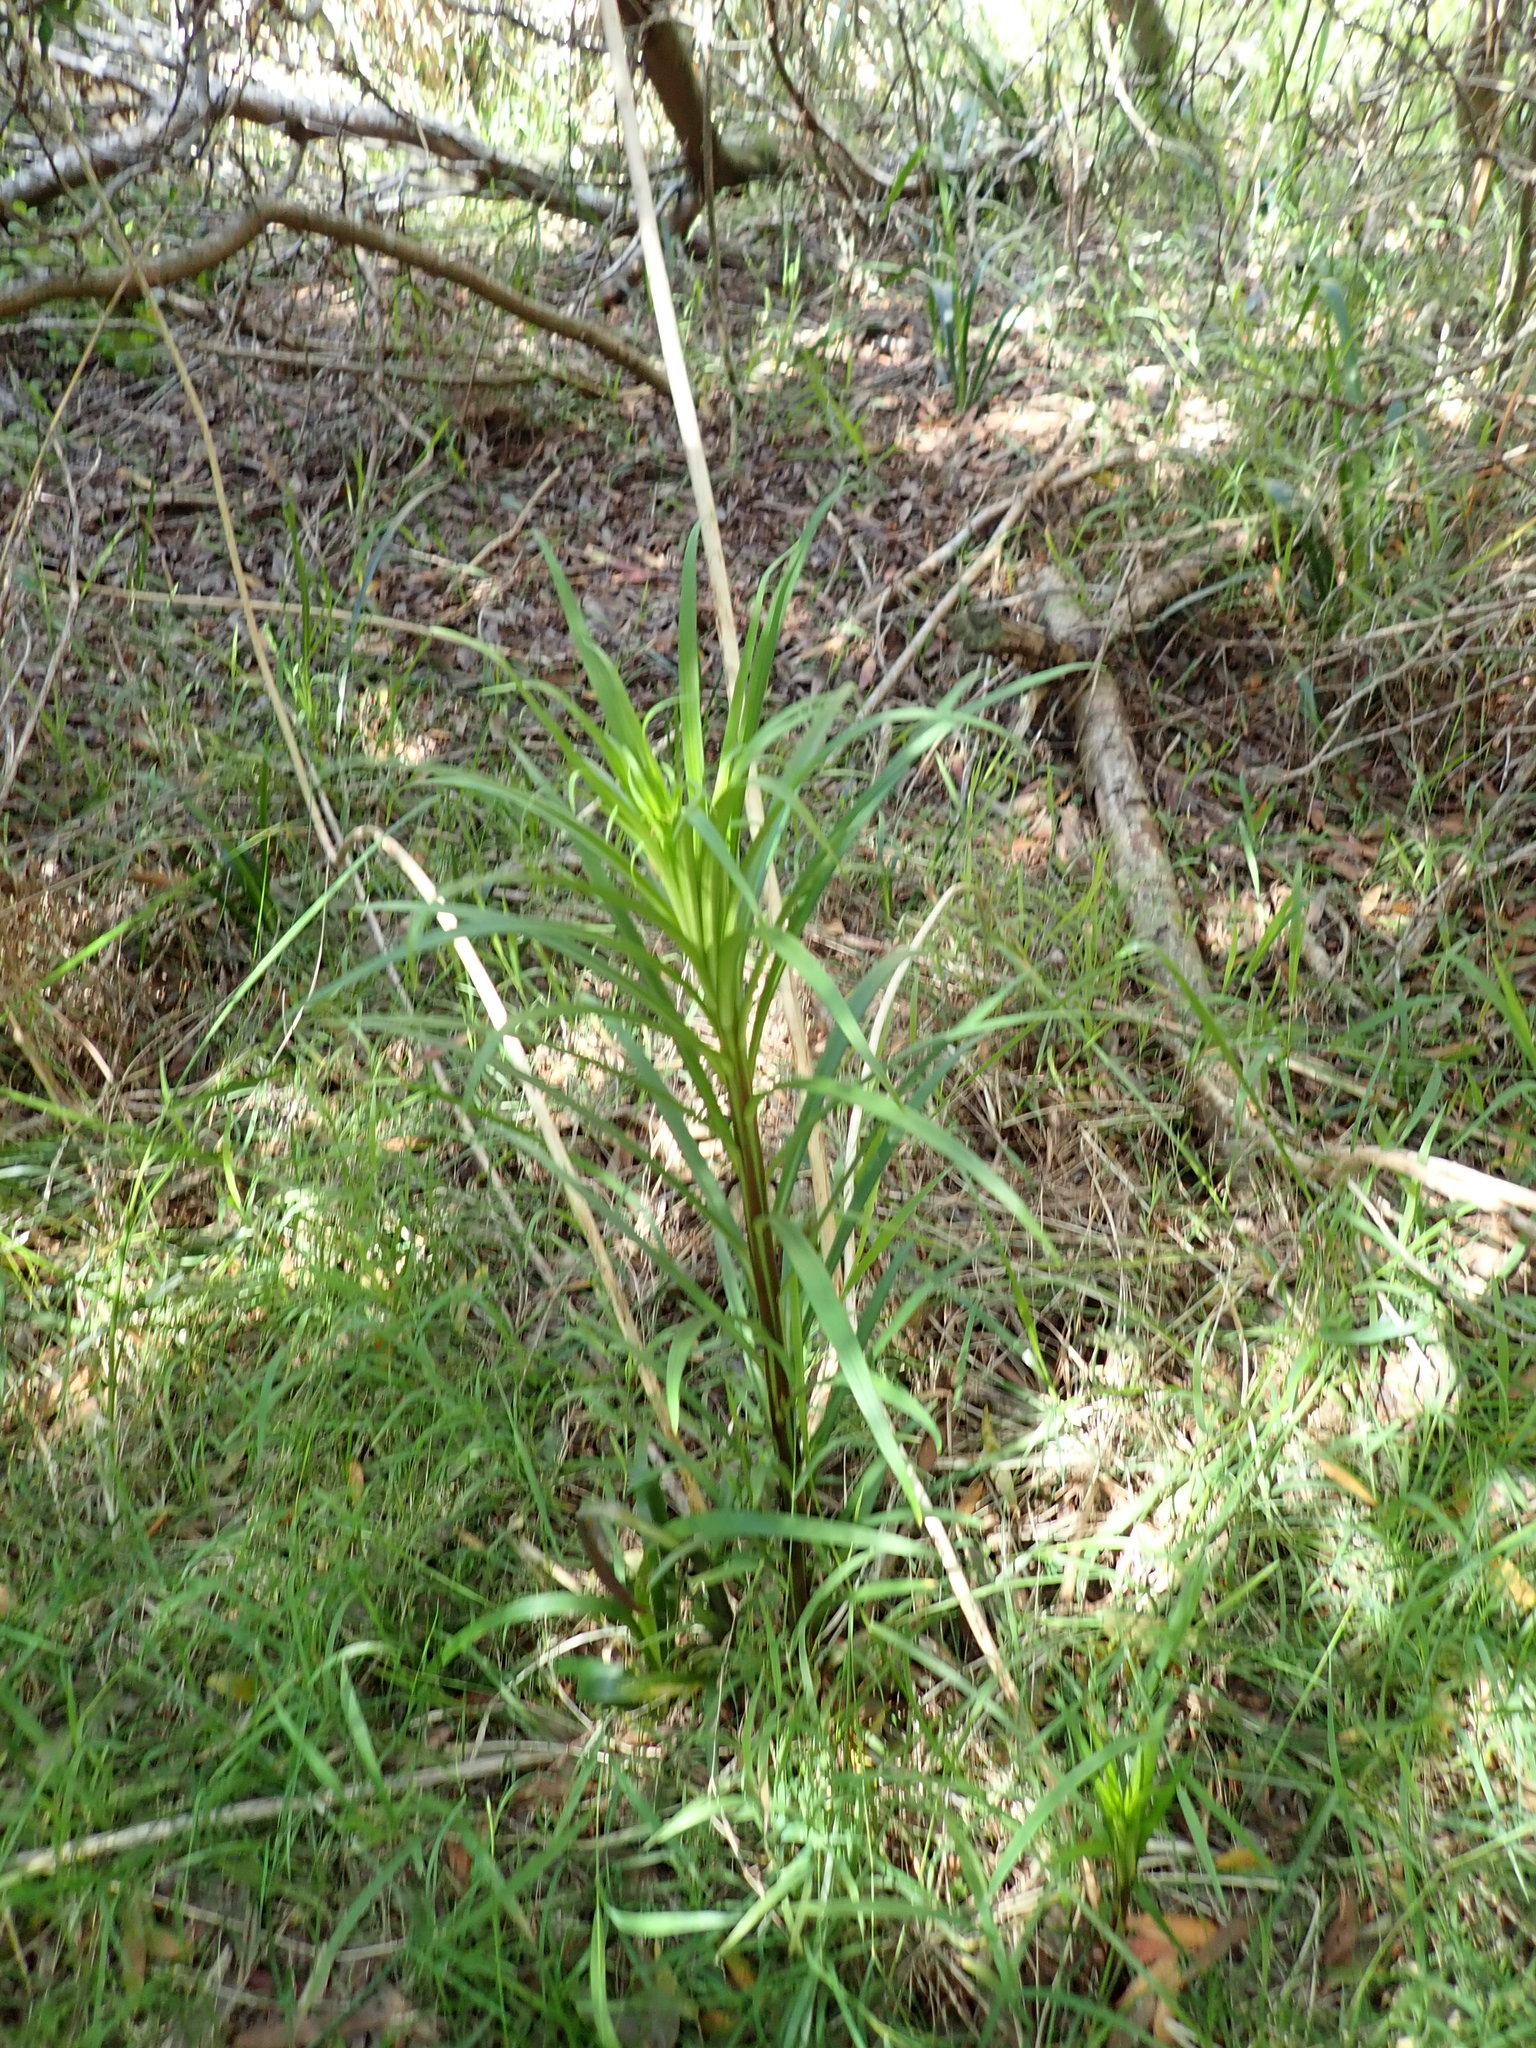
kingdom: Plantae
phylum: Tracheophyta
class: Liliopsida
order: Liliales
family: Liliaceae
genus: Lilium
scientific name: Lilium formosanum
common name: Formosa lily
